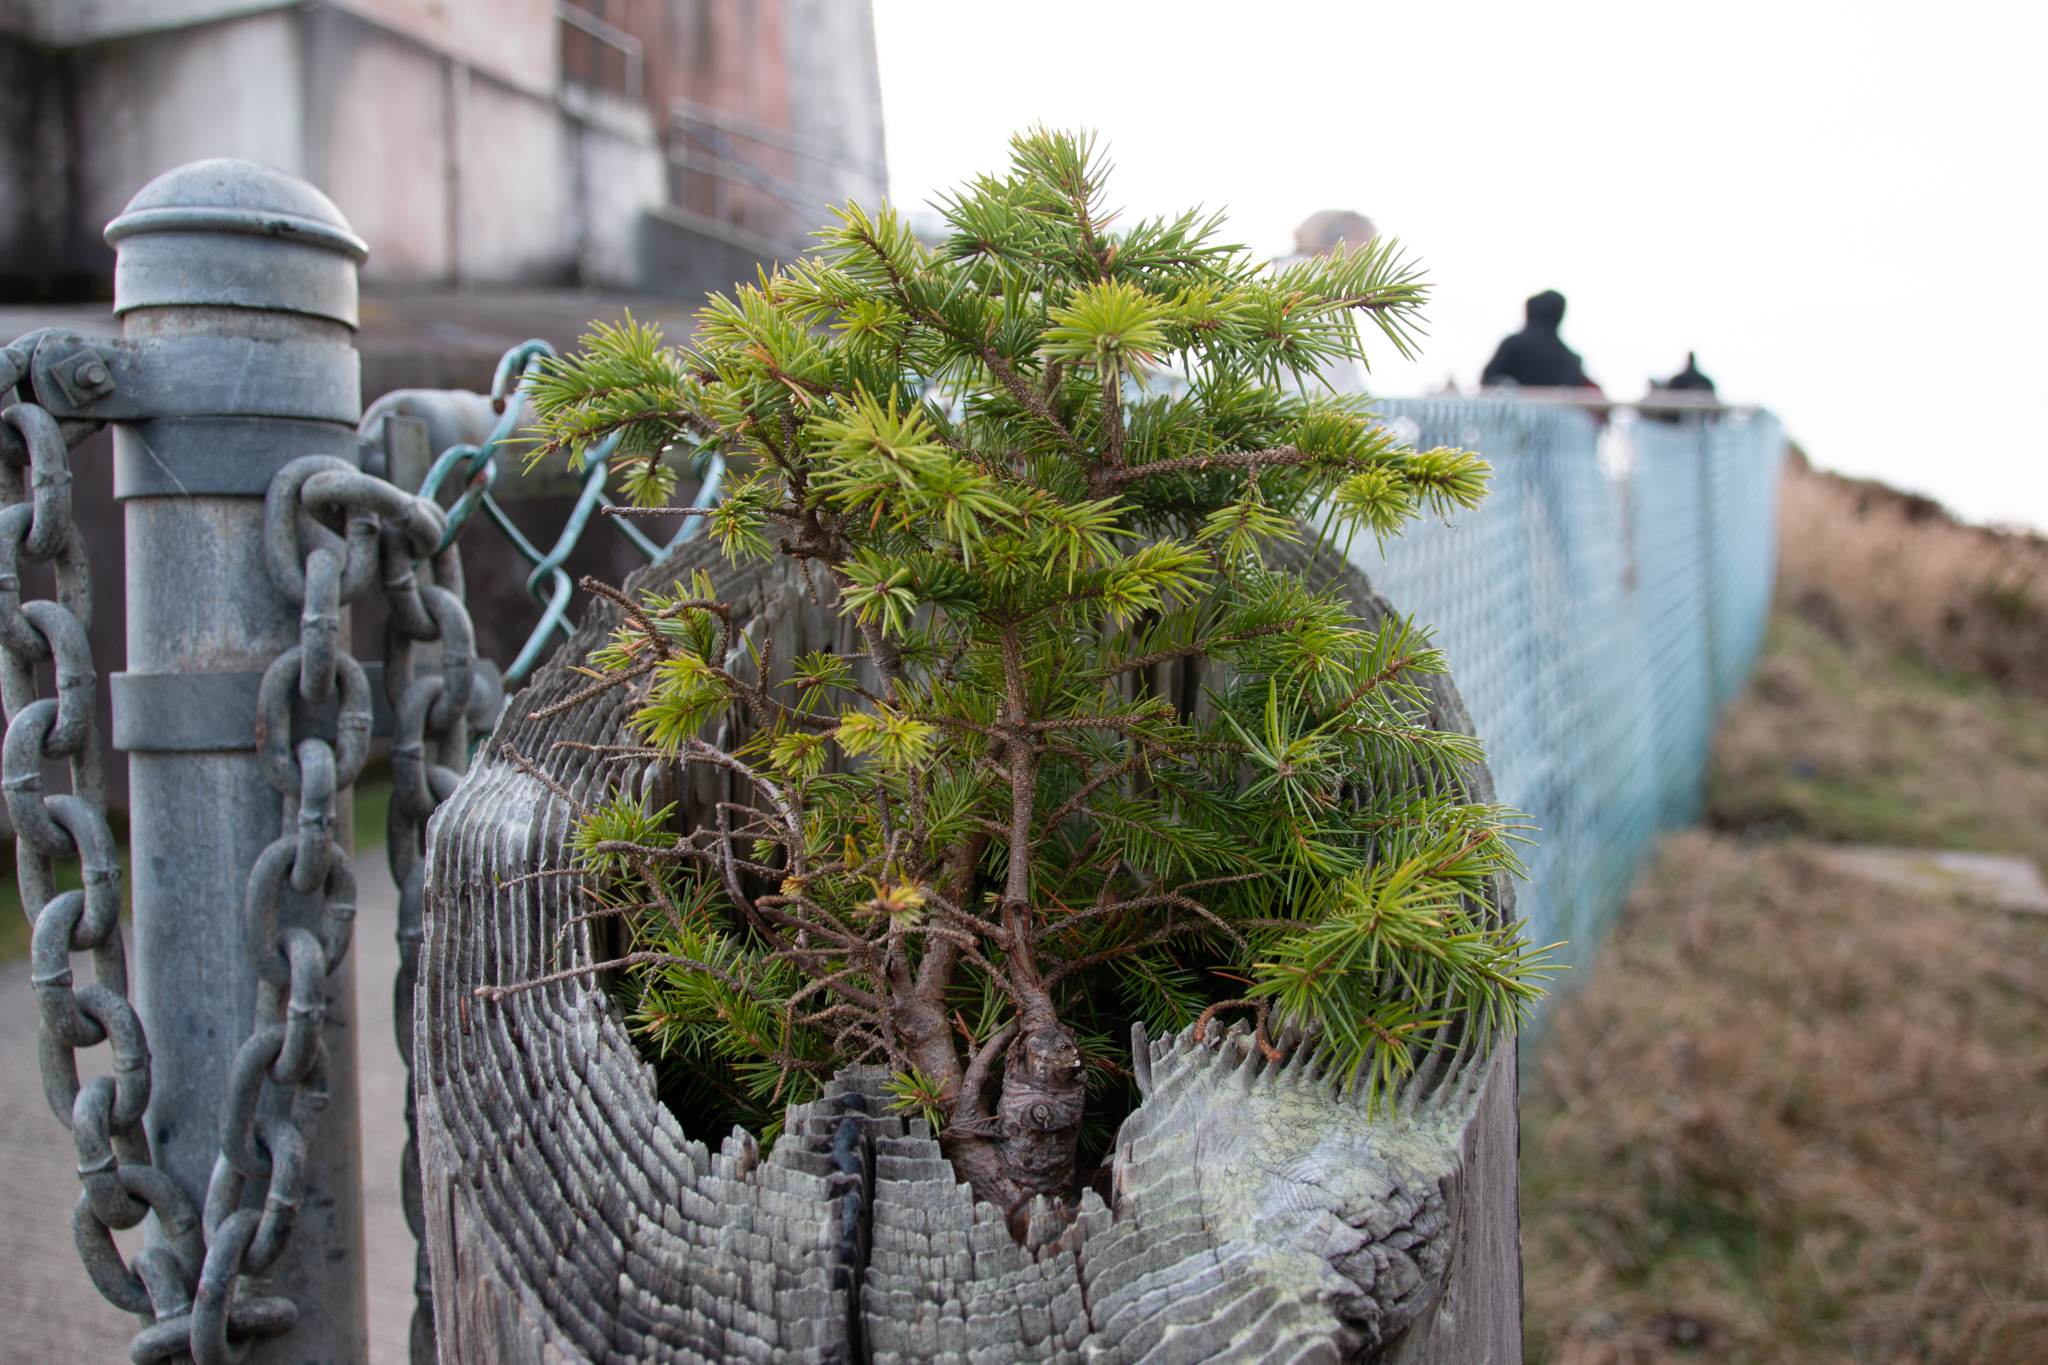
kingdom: Plantae
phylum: Tracheophyta
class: Pinopsida
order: Pinales
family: Pinaceae
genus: Picea
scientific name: Picea sitchensis
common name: Sitka spruce
